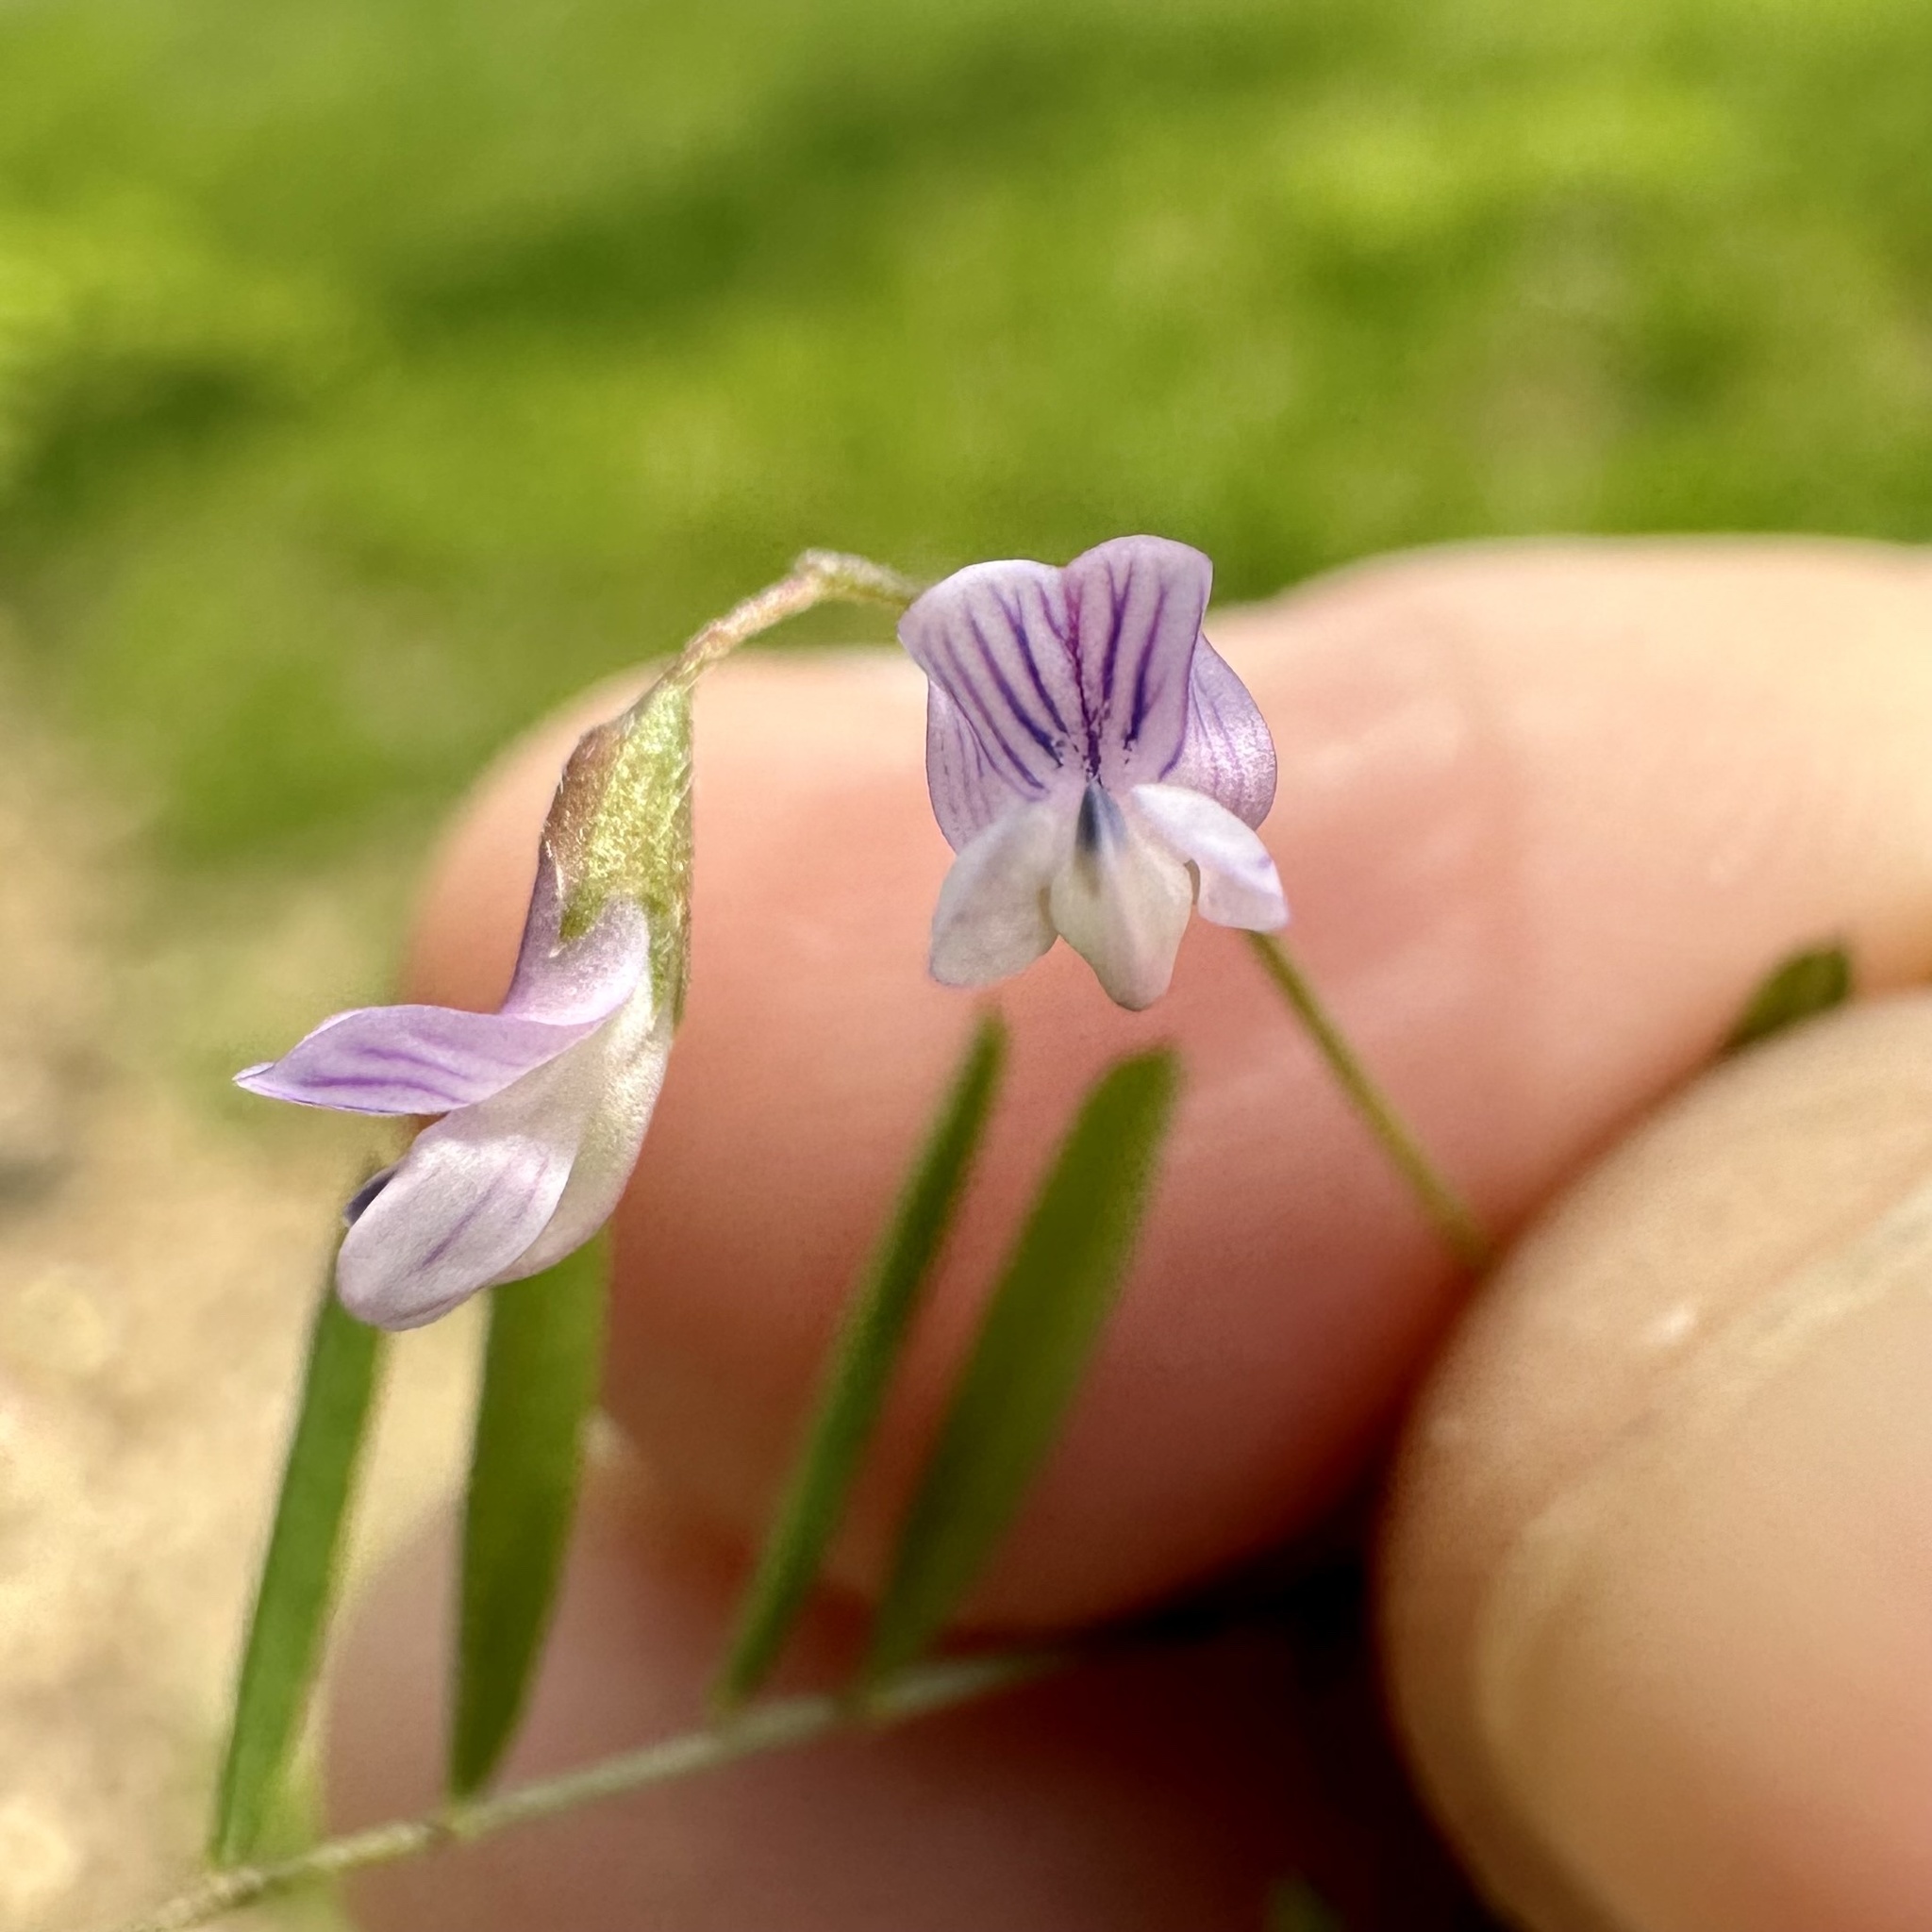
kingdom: Plantae
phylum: Tracheophyta
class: Magnoliopsida
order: Fabales
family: Fabaceae
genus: Vicia
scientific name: Vicia tetrasperma
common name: Smooth tare
